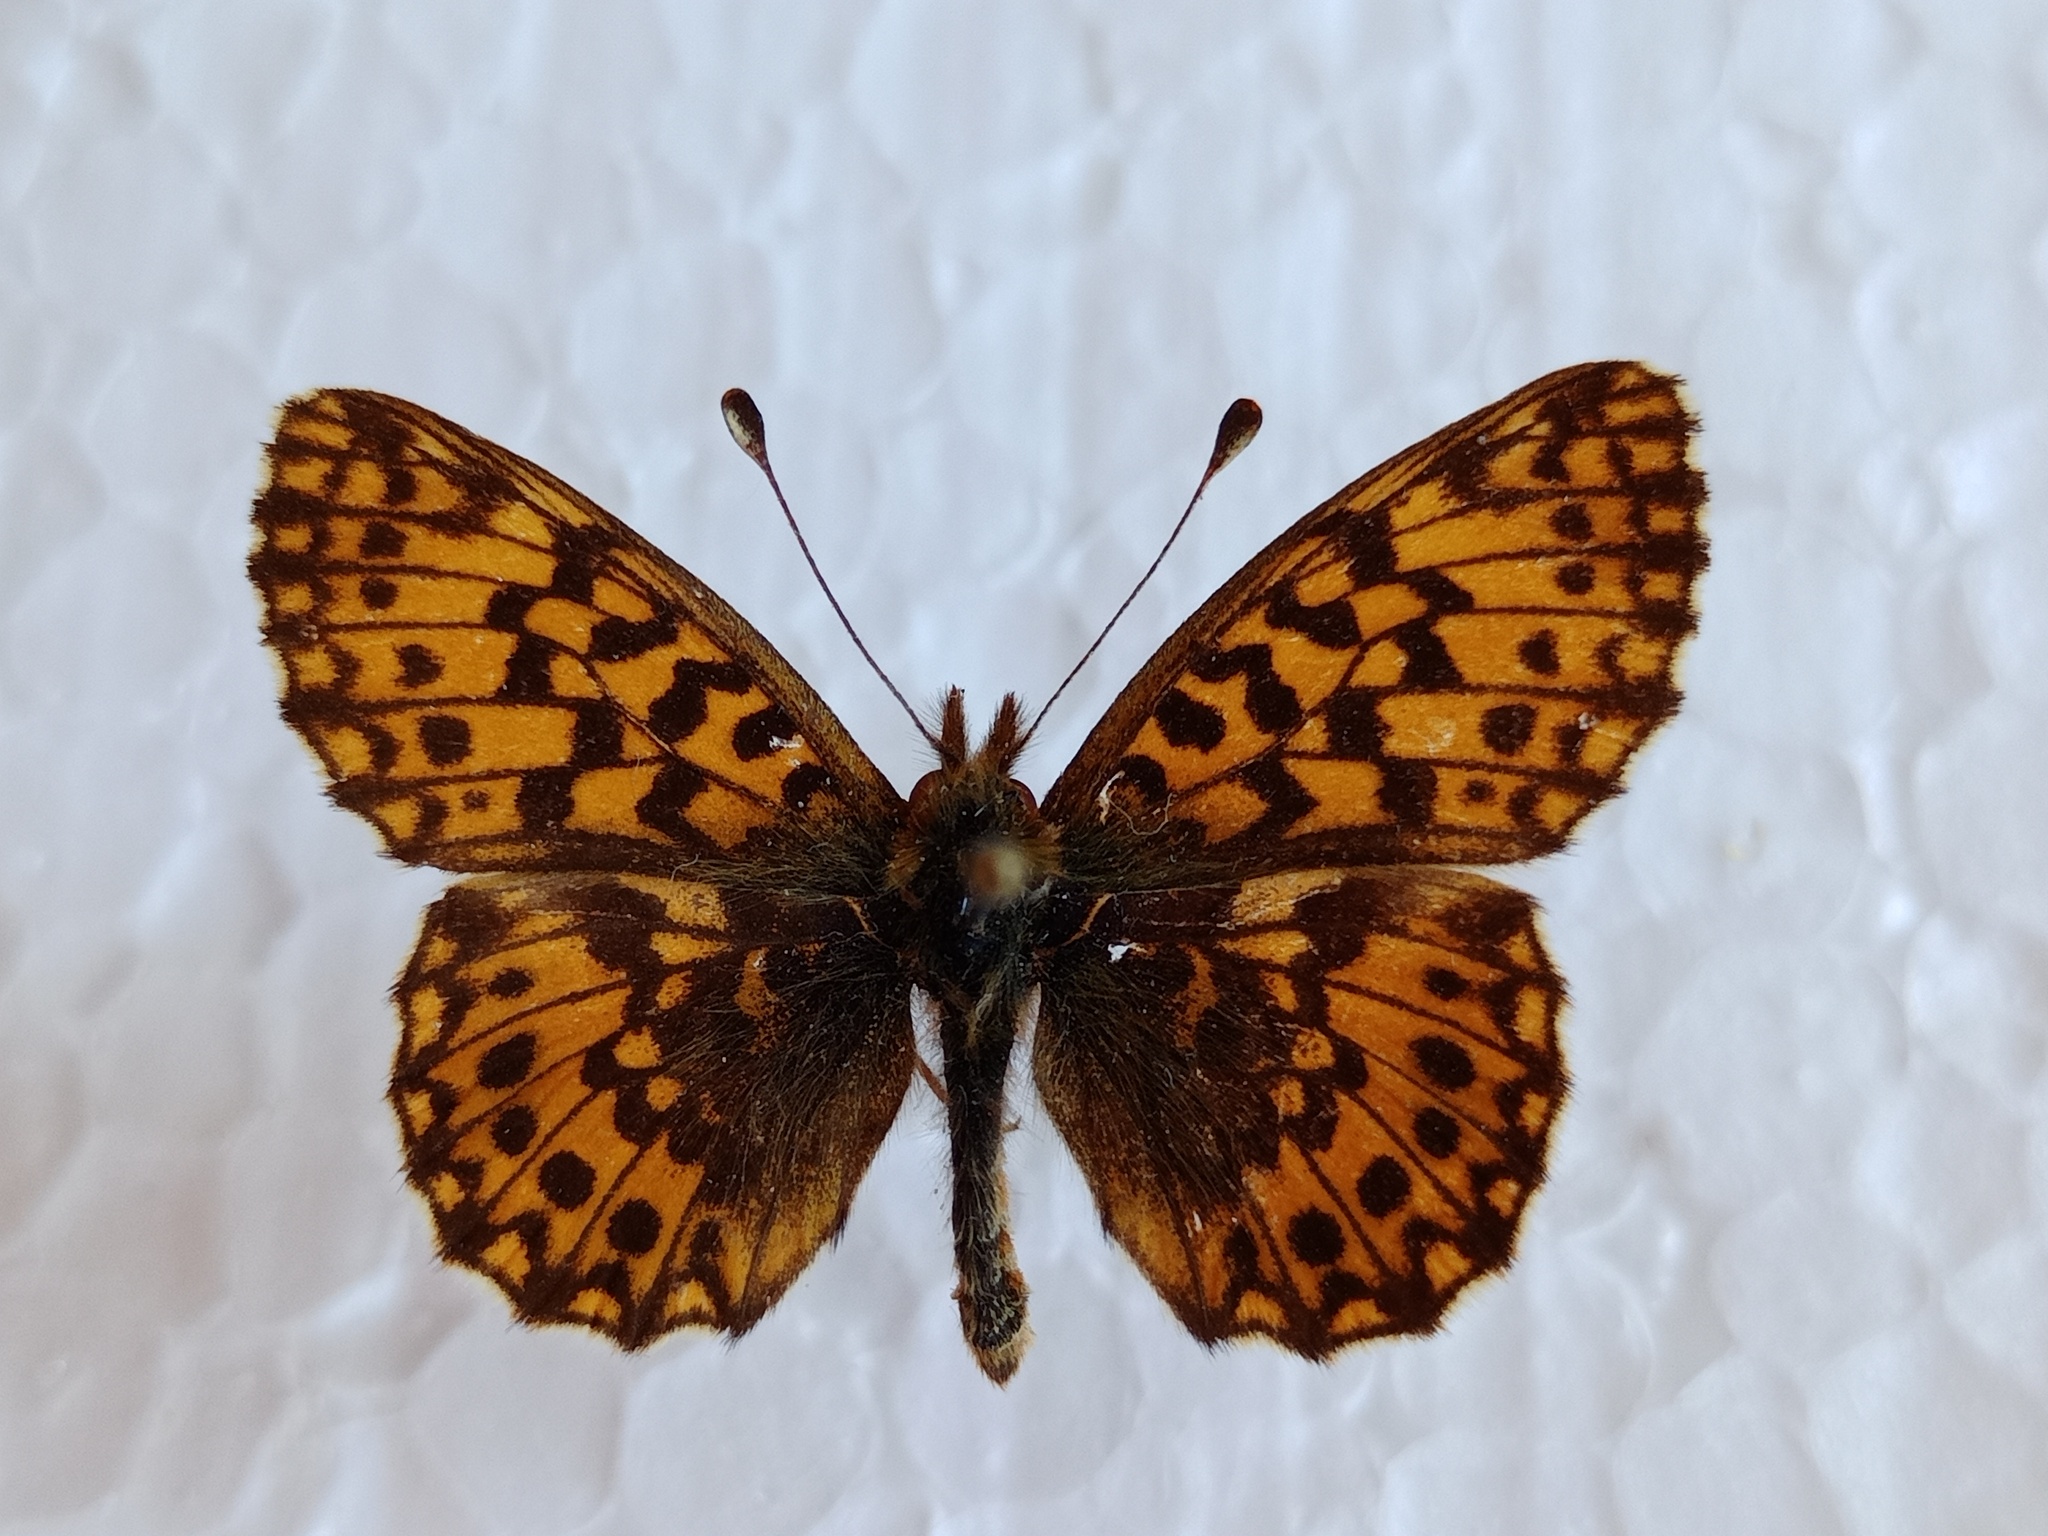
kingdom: Animalia
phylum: Arthropoda
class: Insecta
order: Lepidoptera
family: Nymphalidae
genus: Boloria
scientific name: Boloria dia
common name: Weaver's fritillary
